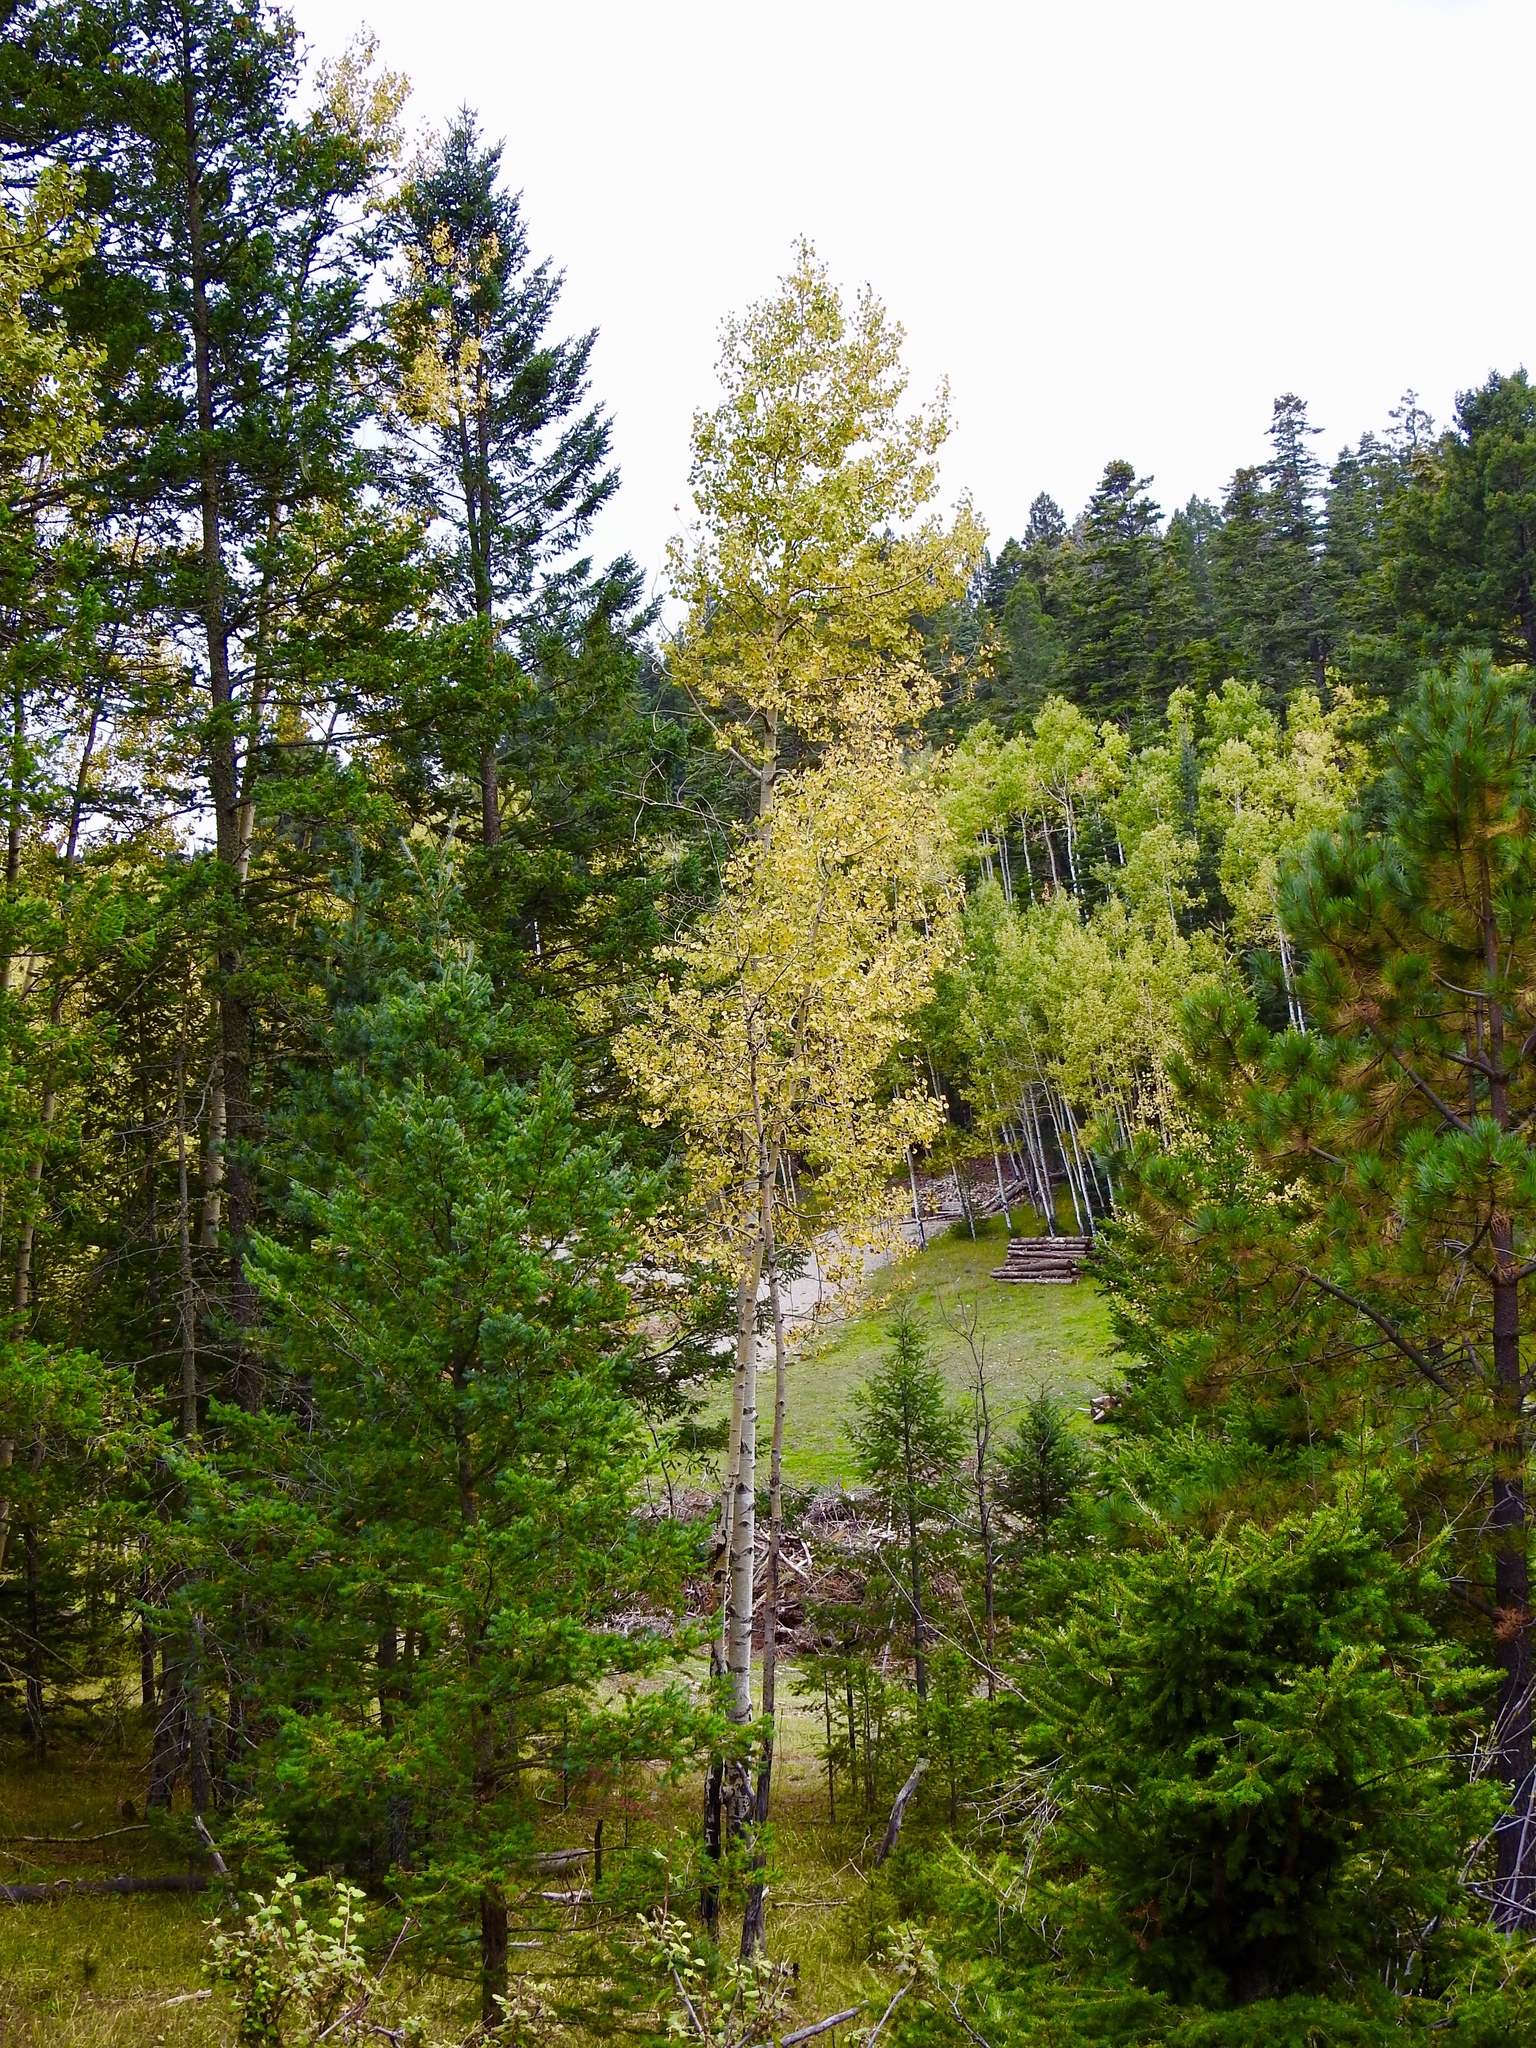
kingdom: Plantae
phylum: Tracheophyta
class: Magnoliopsida
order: Malpighiales
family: Salicaceae
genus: Populus
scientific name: Populus tremuloides
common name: Quaking aspen
